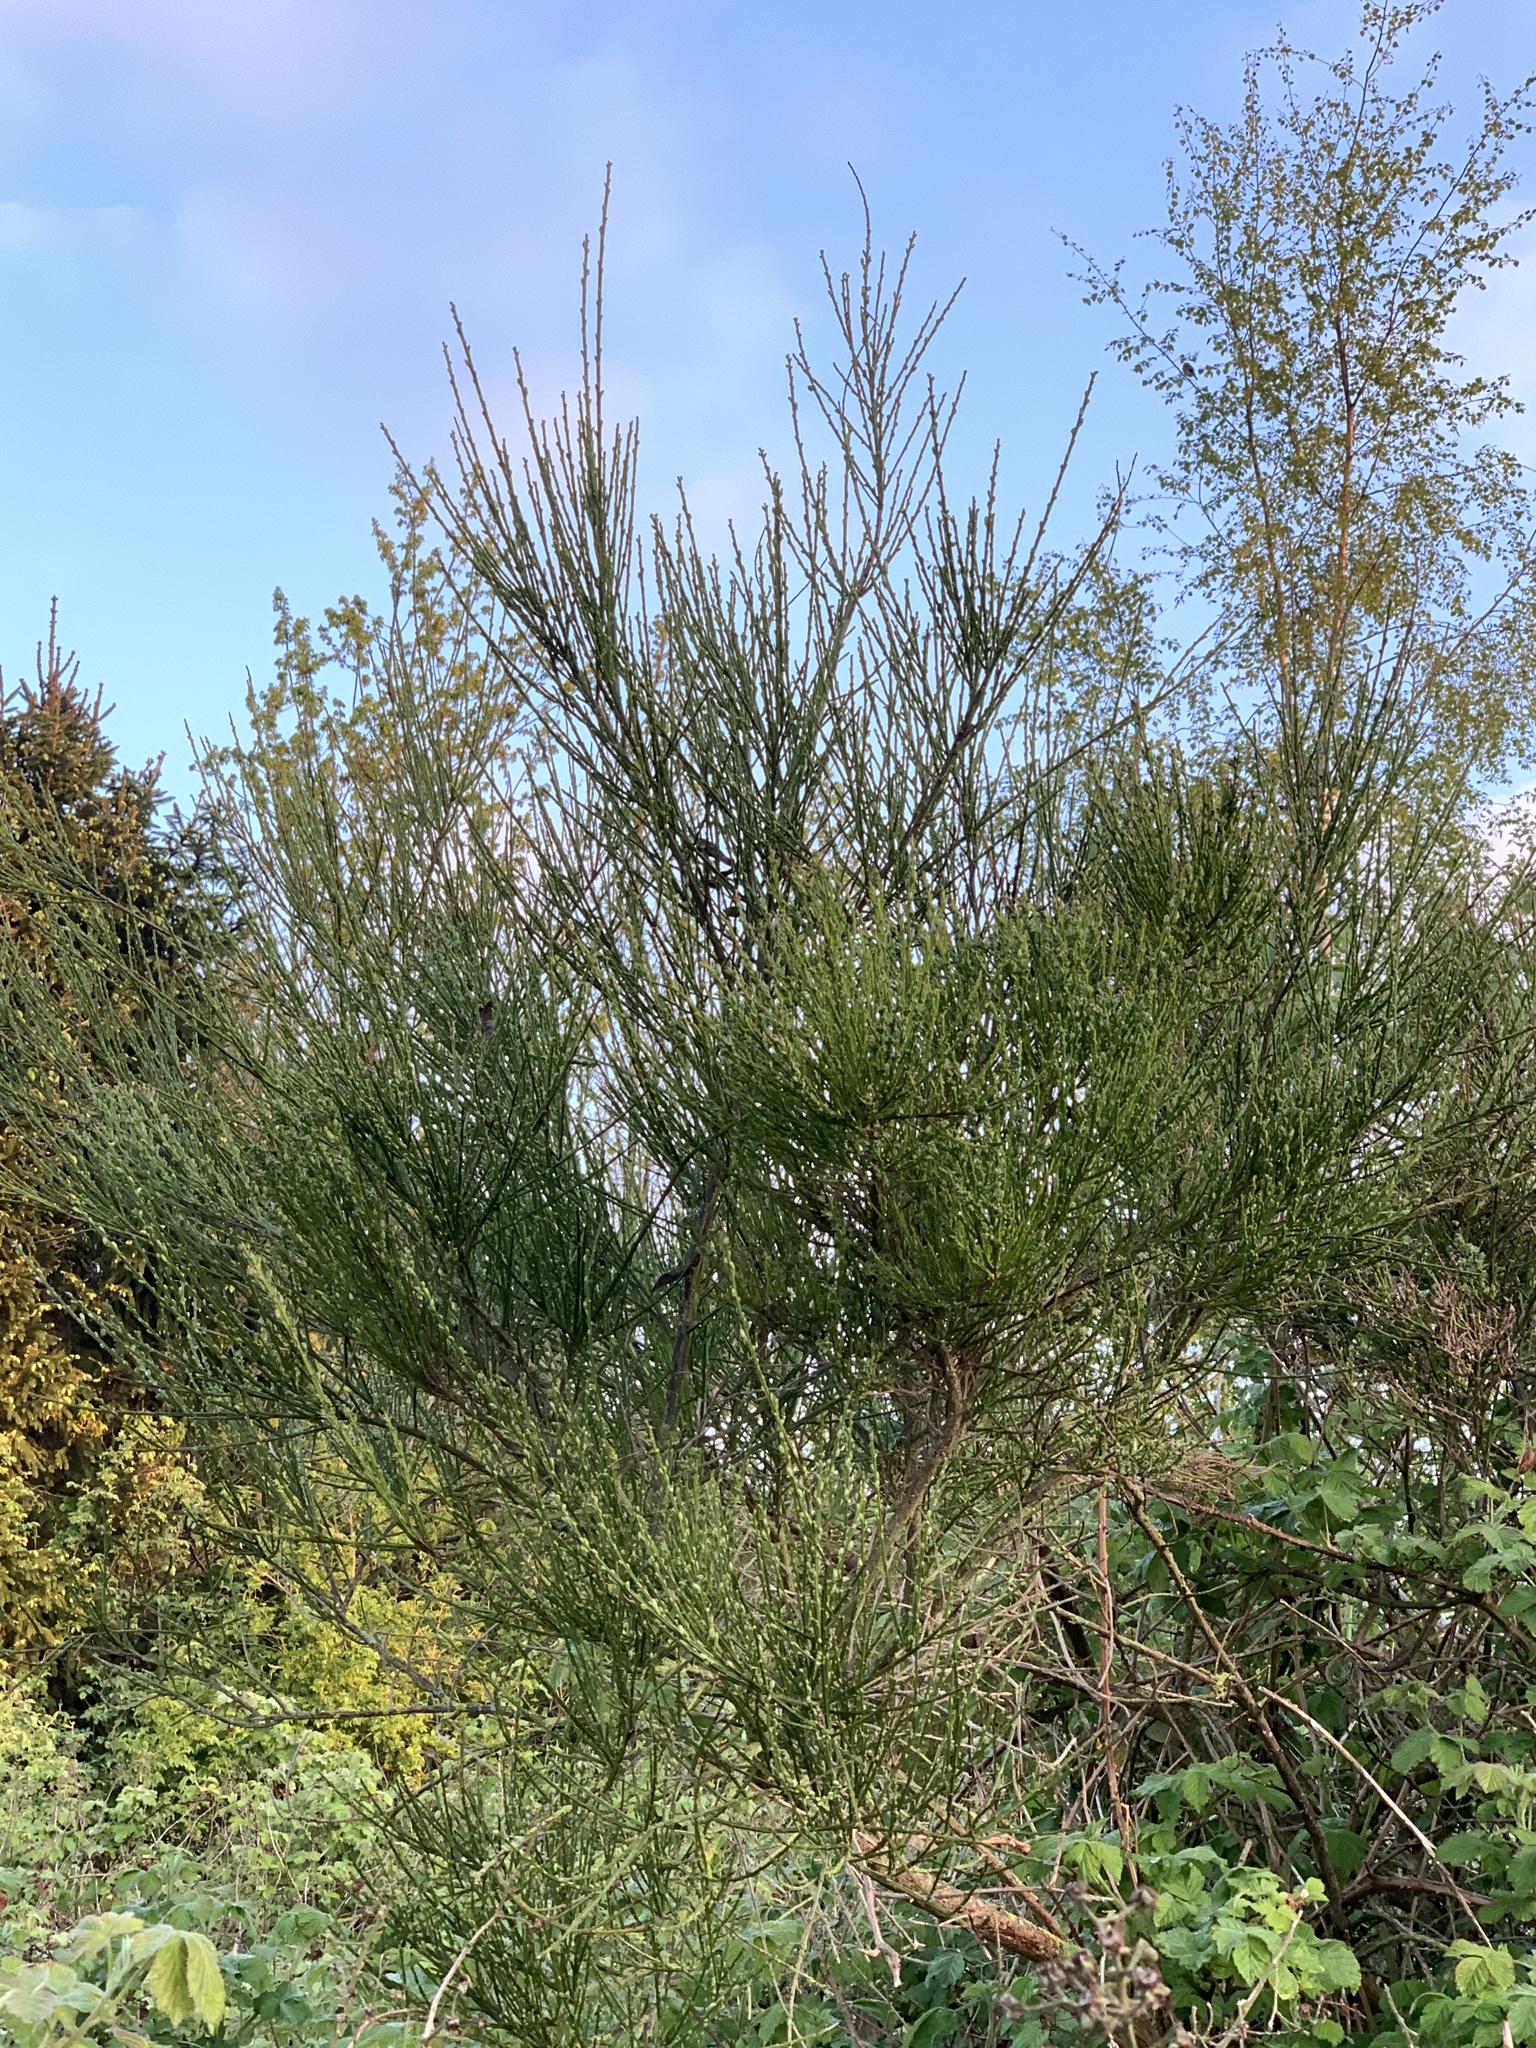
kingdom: Plantae
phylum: Tracheophyta
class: Magnoliopsida
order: Fabales
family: Fabaceae
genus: Cytisus
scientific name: Cytisus scoparius
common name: Scotch broom
